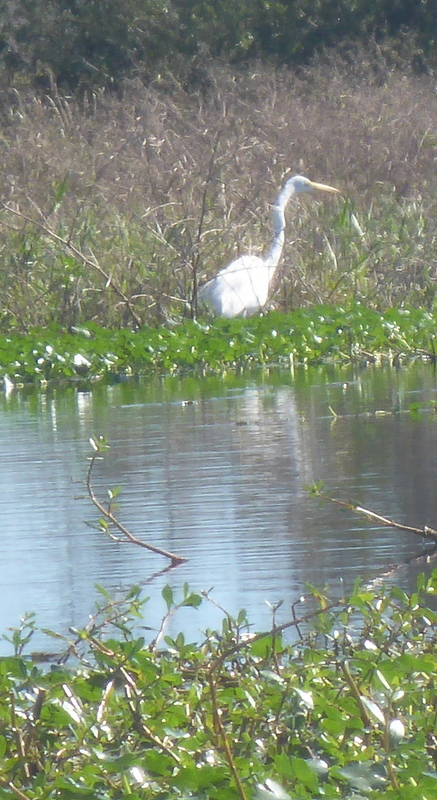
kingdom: Animalia
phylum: Chordata
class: Aves
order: Pelecaniformes
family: Ardeidae
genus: Ardea
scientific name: Ardea alba
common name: Great egret
